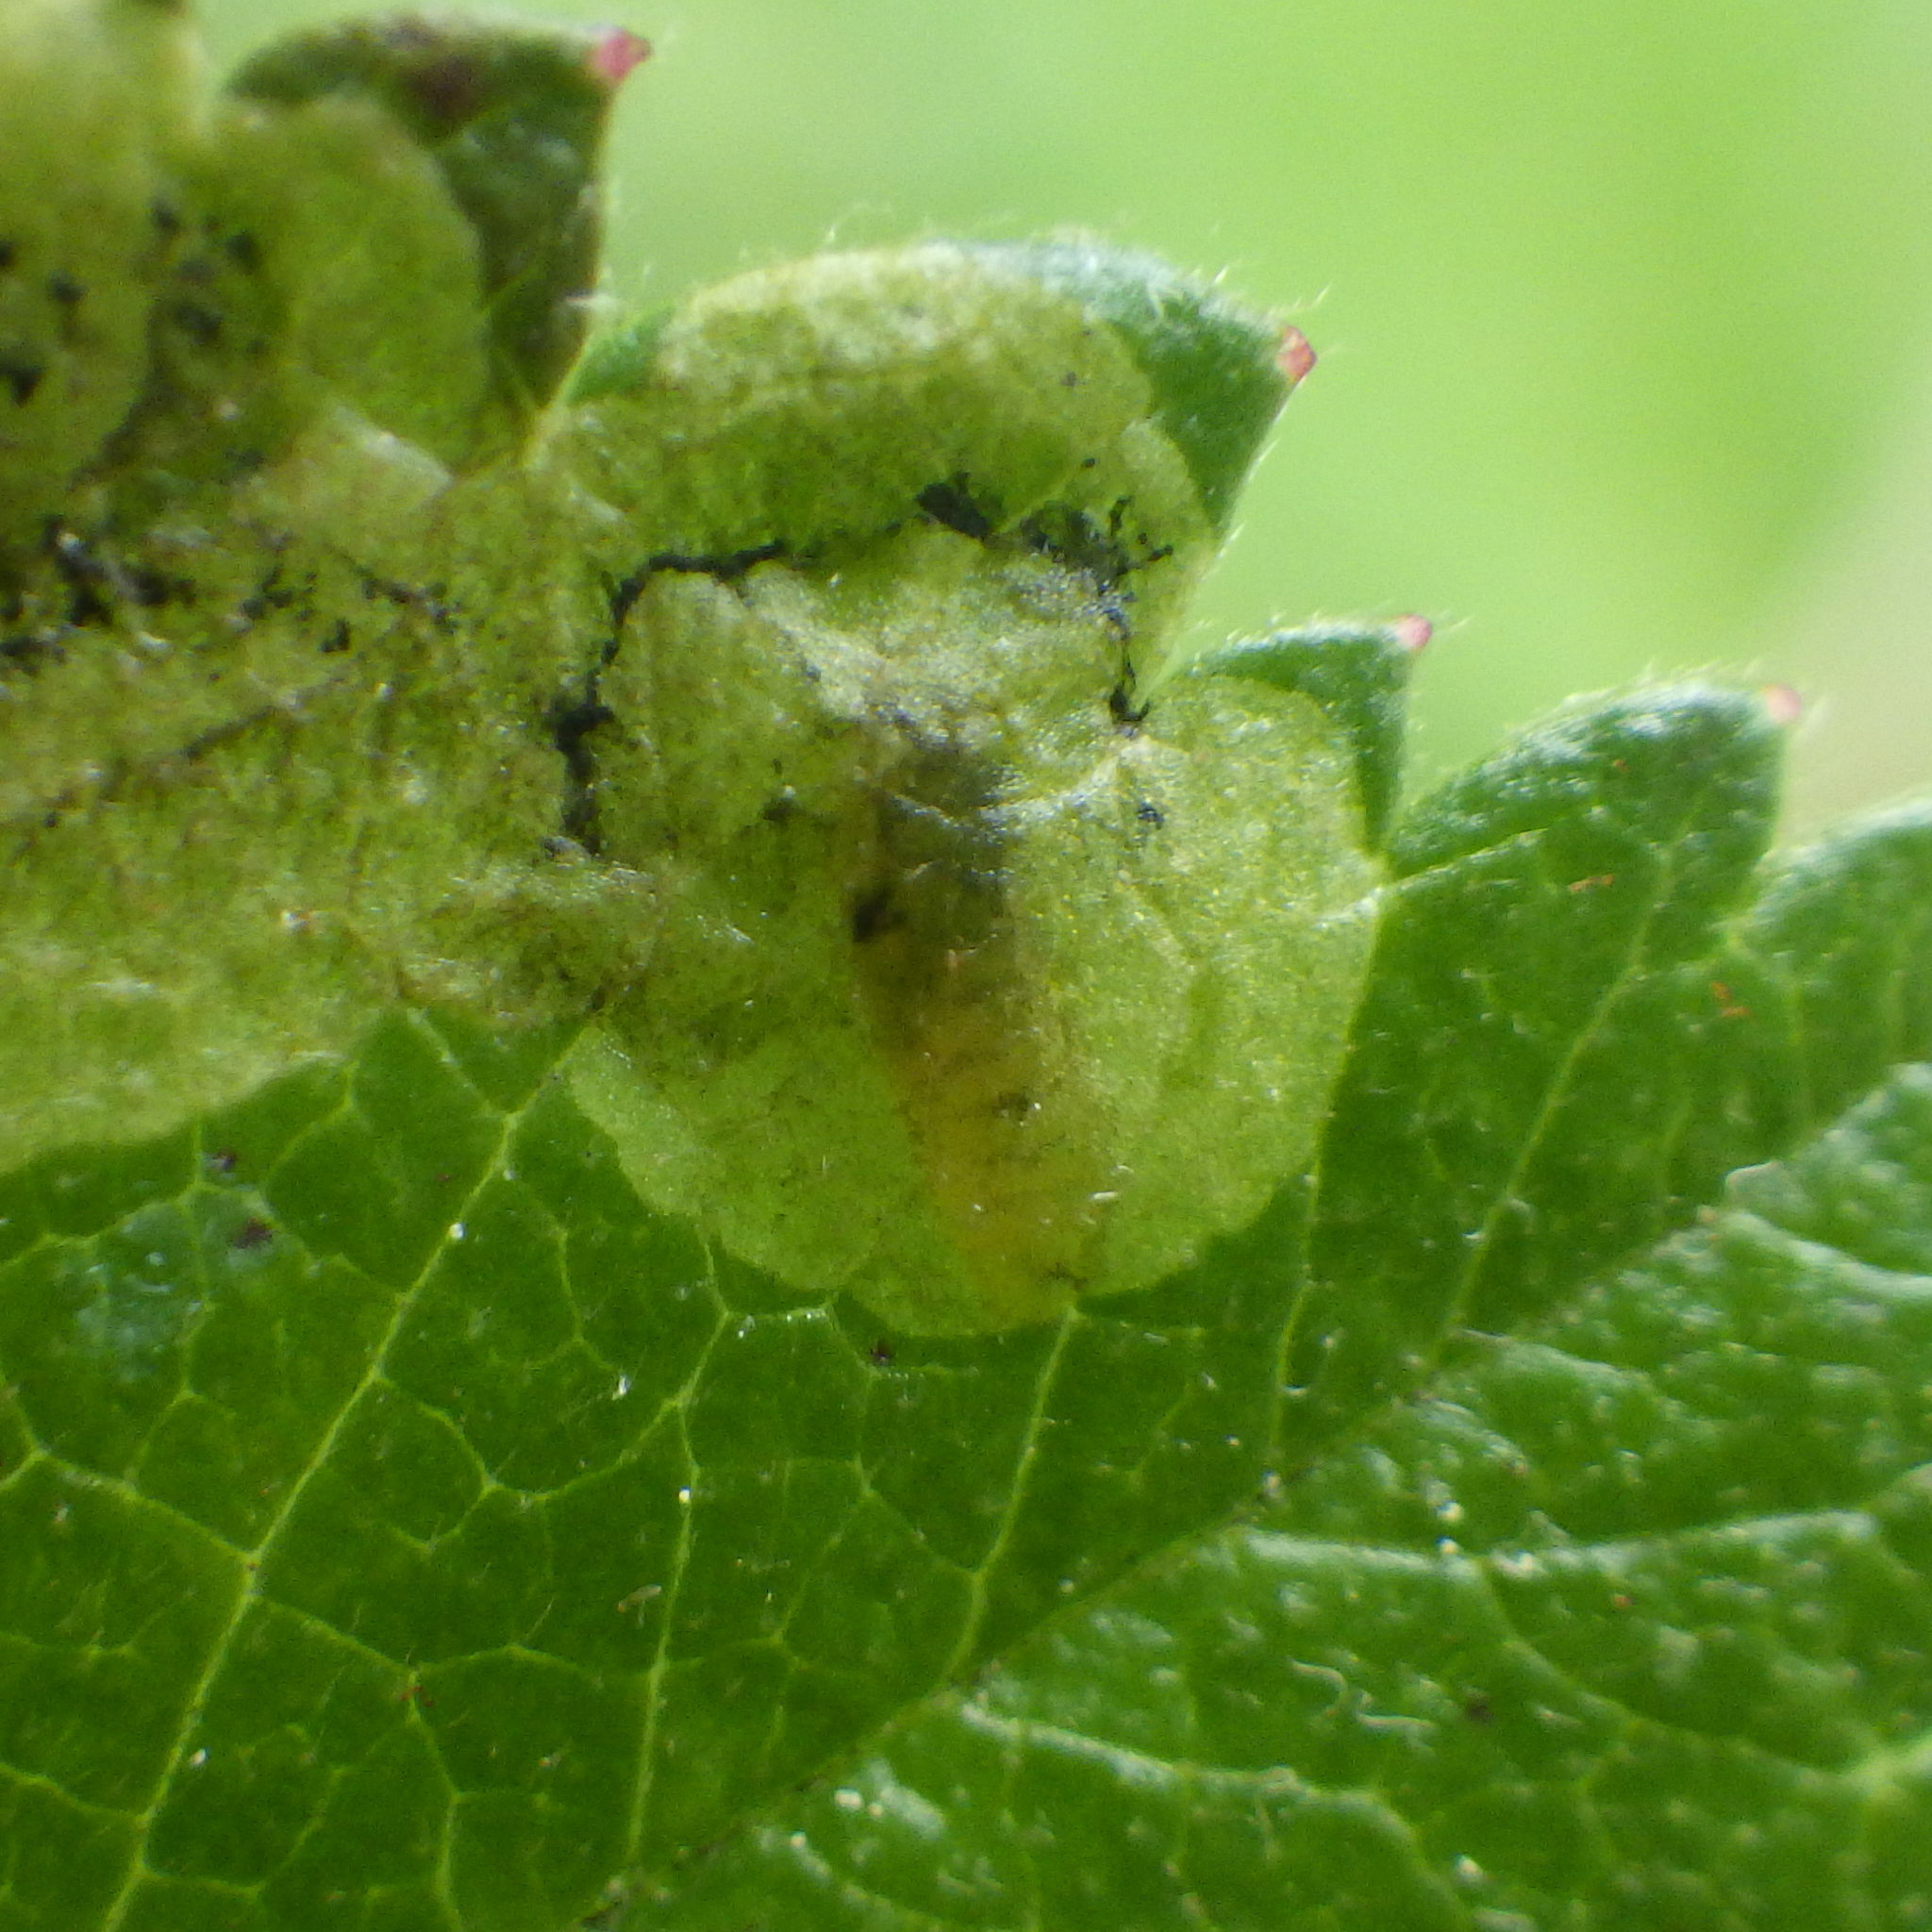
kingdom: Animalia
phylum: Arthropoda
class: Insecta
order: Diptera
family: Agromyzidae
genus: Agromyza
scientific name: Agromyza masculina
